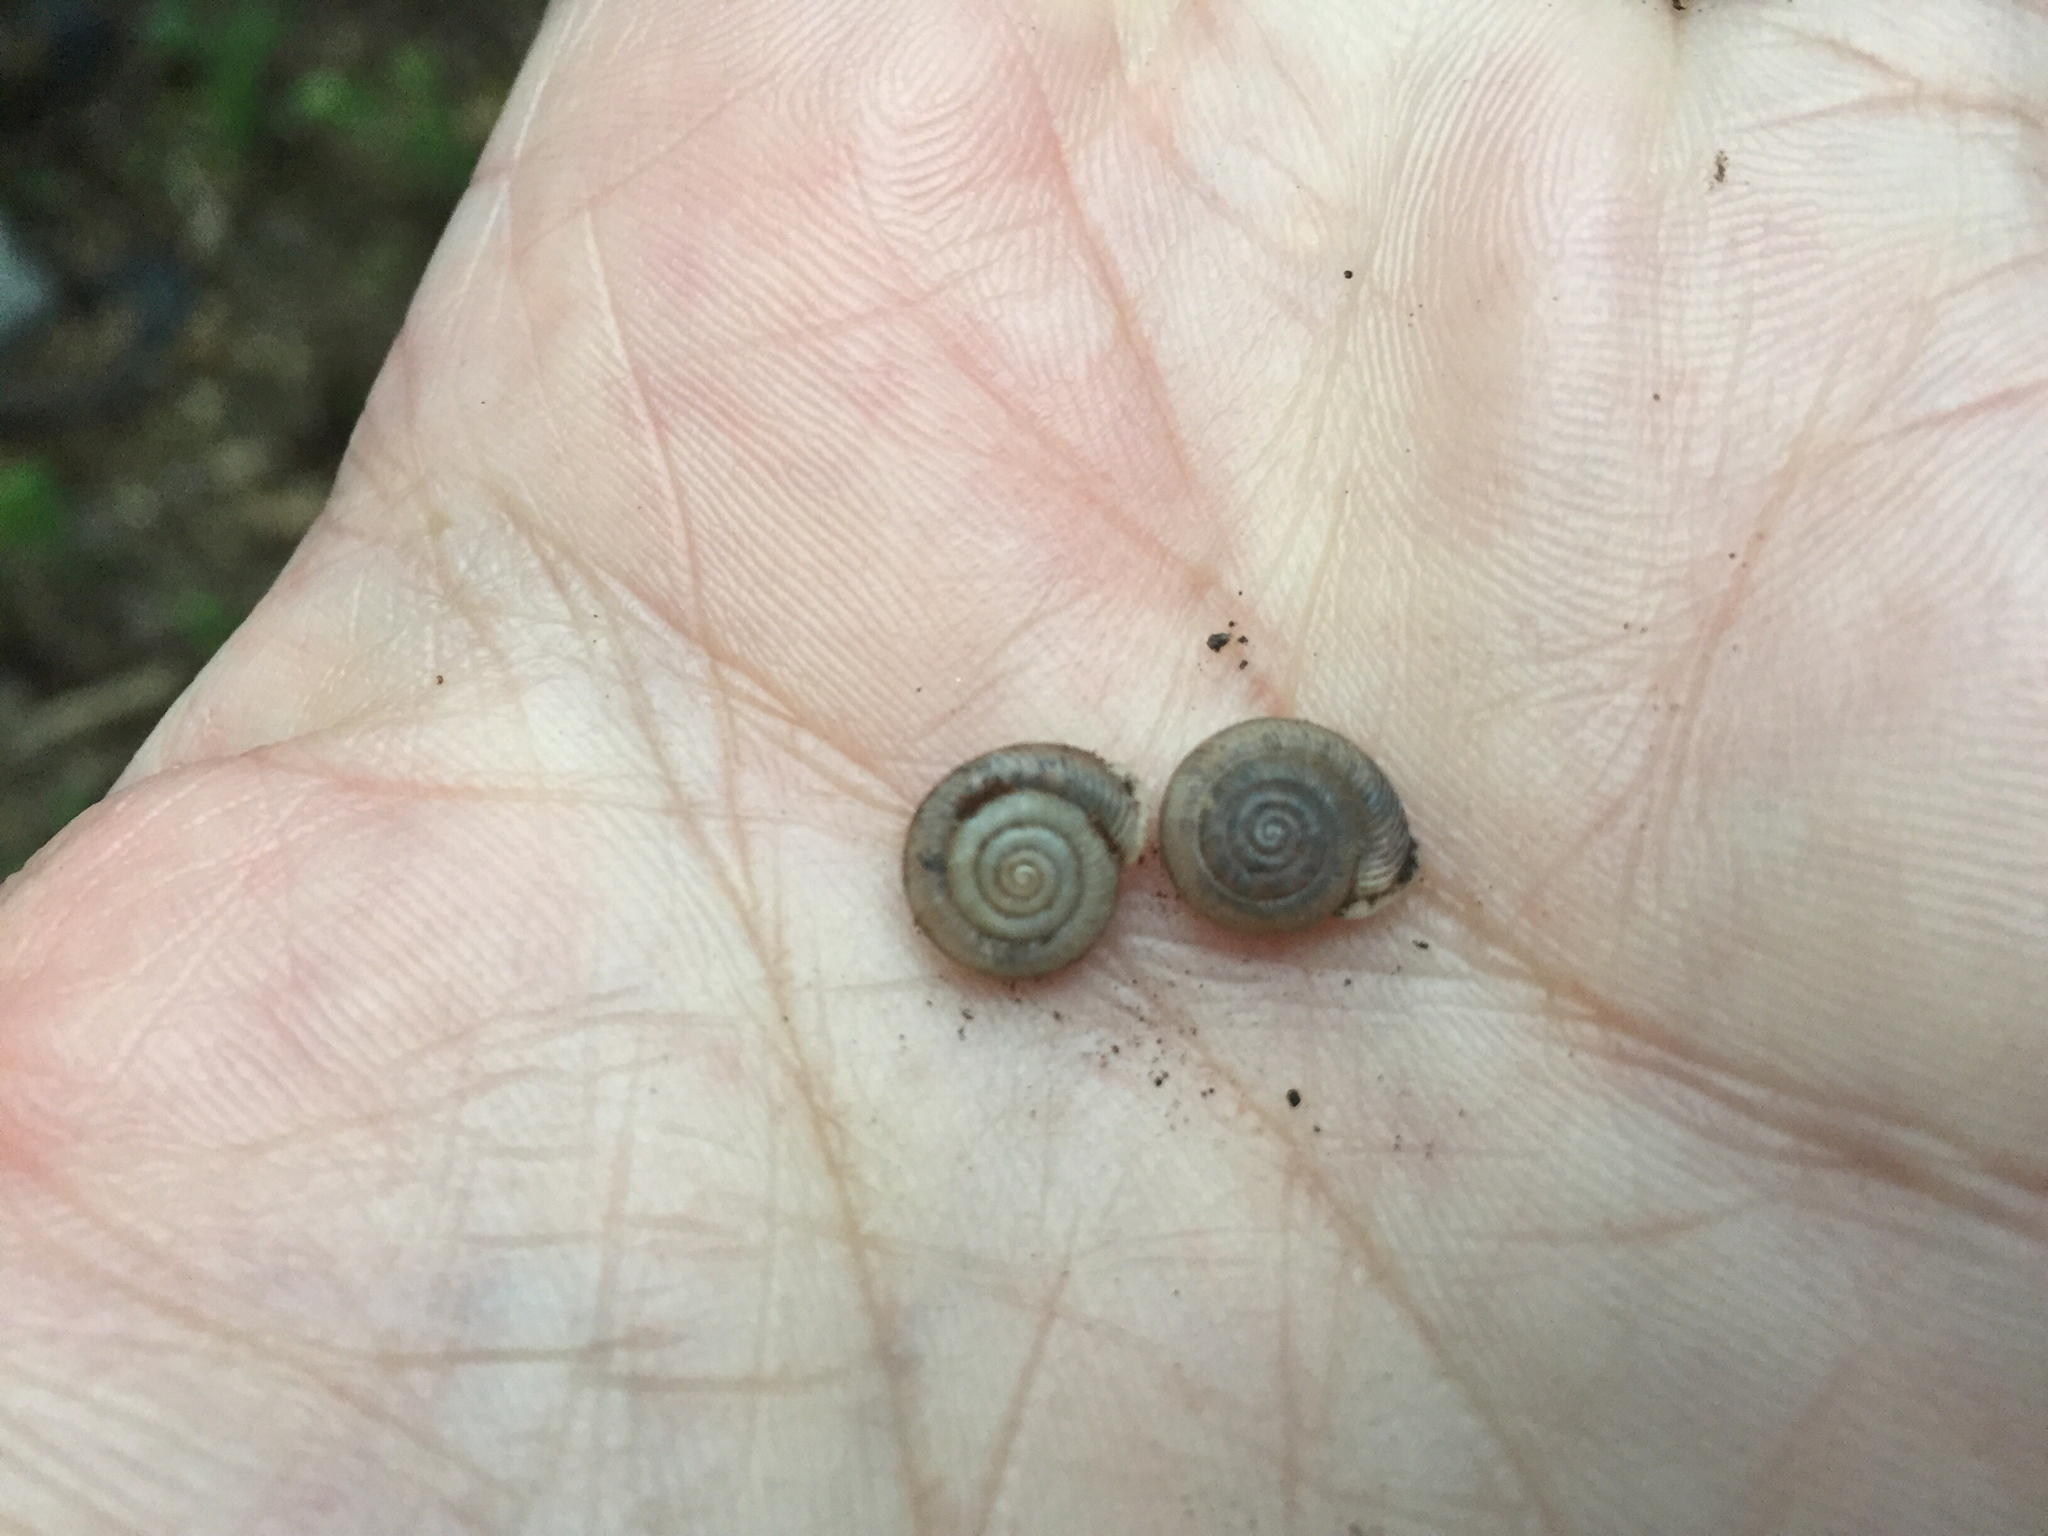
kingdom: Animalia
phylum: Mollusca
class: Gastropoda
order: Stylommatophora
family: Polygyridae
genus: Linisa
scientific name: Linisa texasiana
